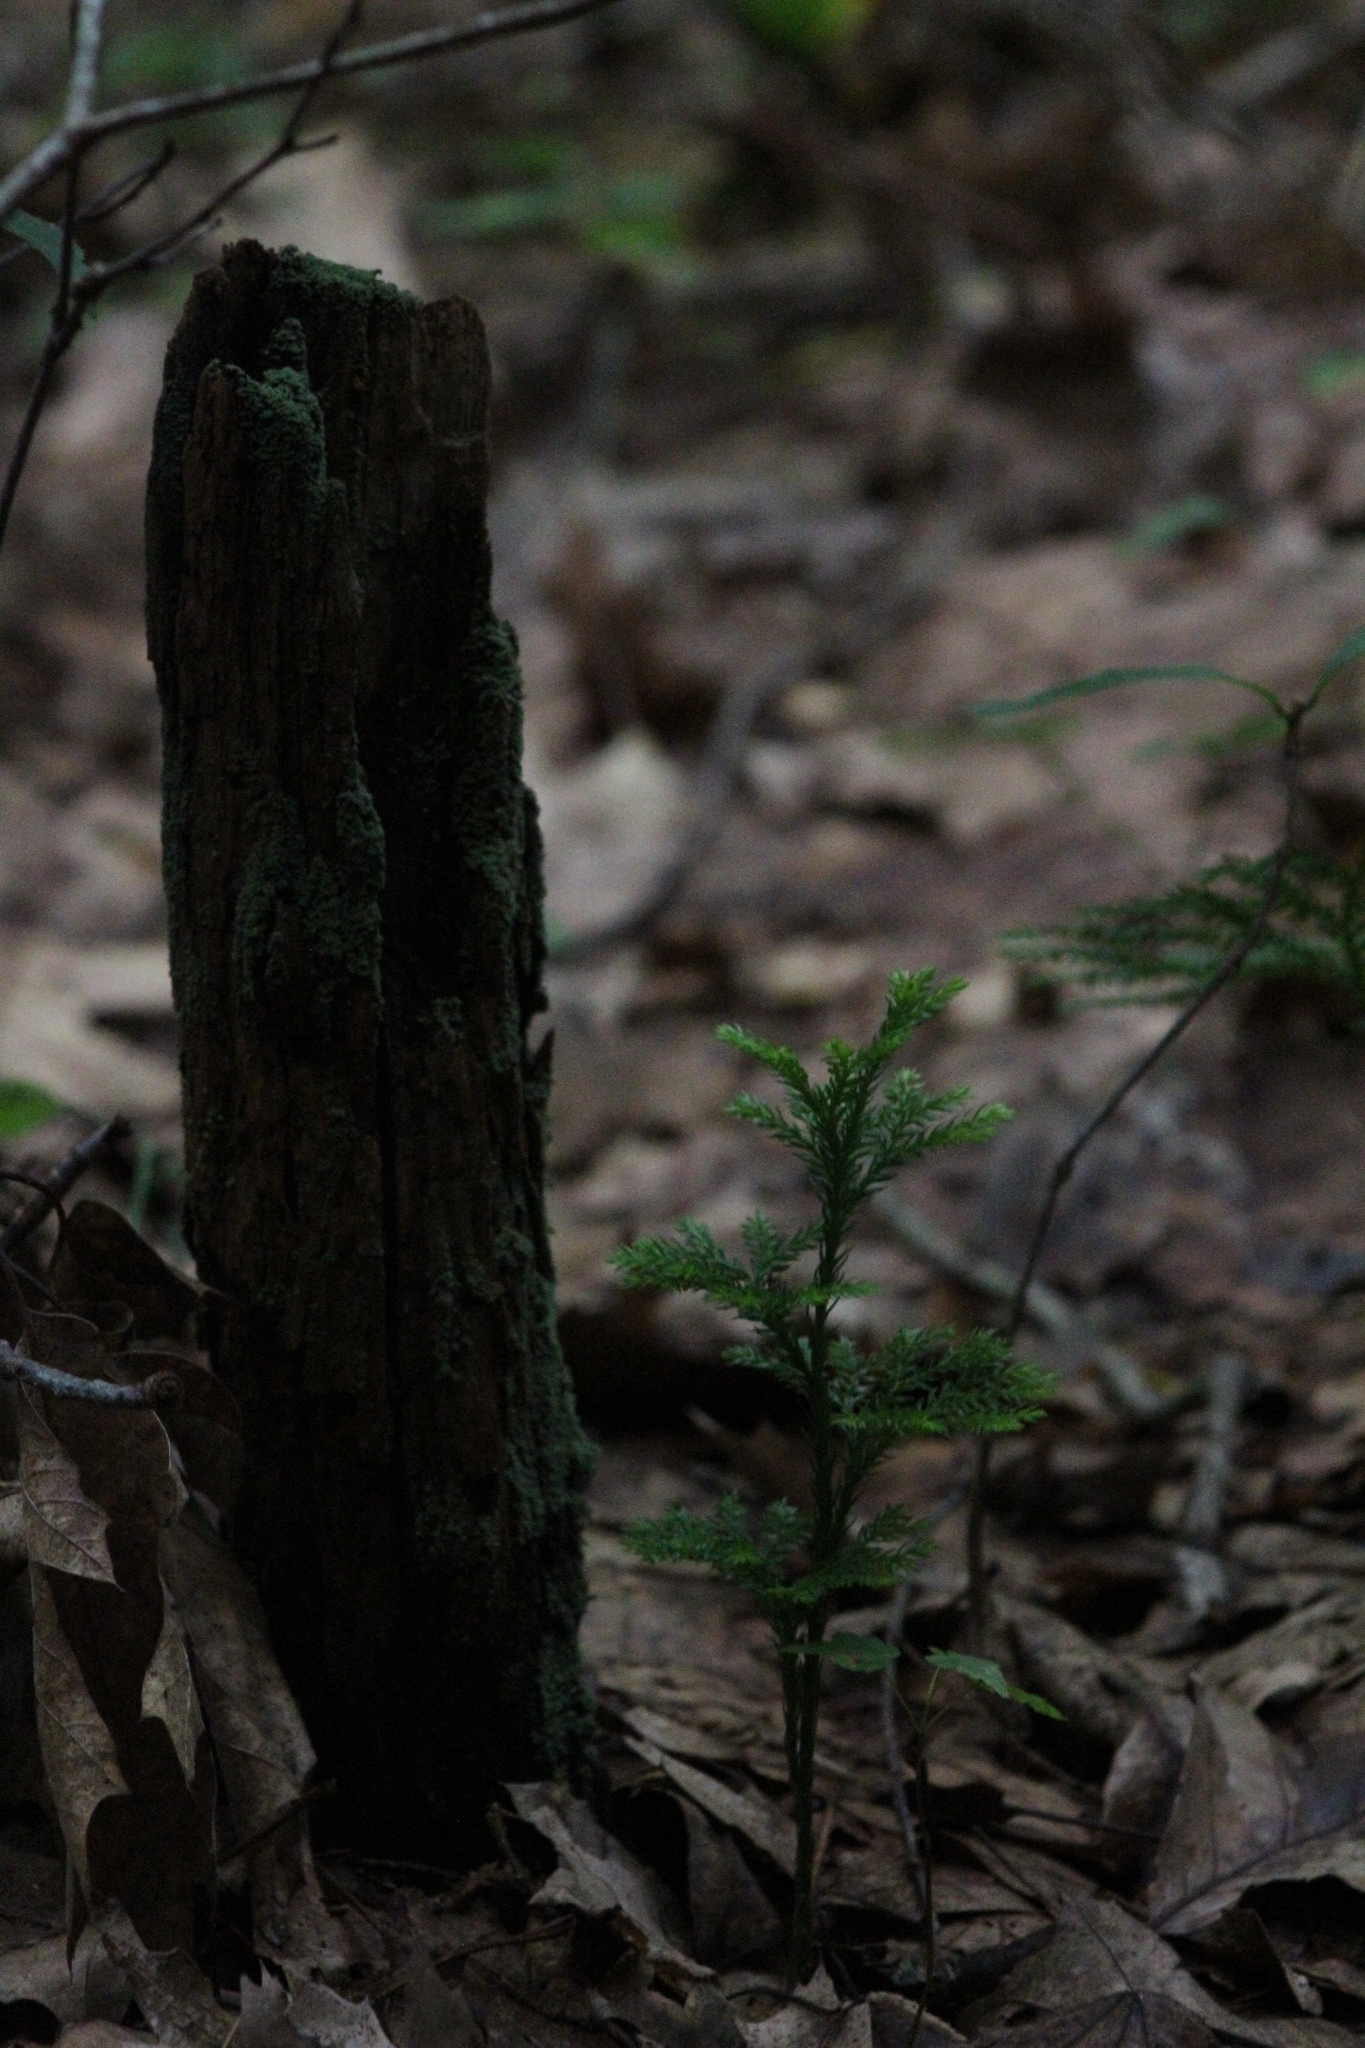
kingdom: Plantae
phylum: Tracheophyta
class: Lycopodiopsida
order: Lycopodiales
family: Lycopodiaceae
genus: Dendrolycopodium
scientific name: Dendrolycopodium obscurum
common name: Common ground-pine
